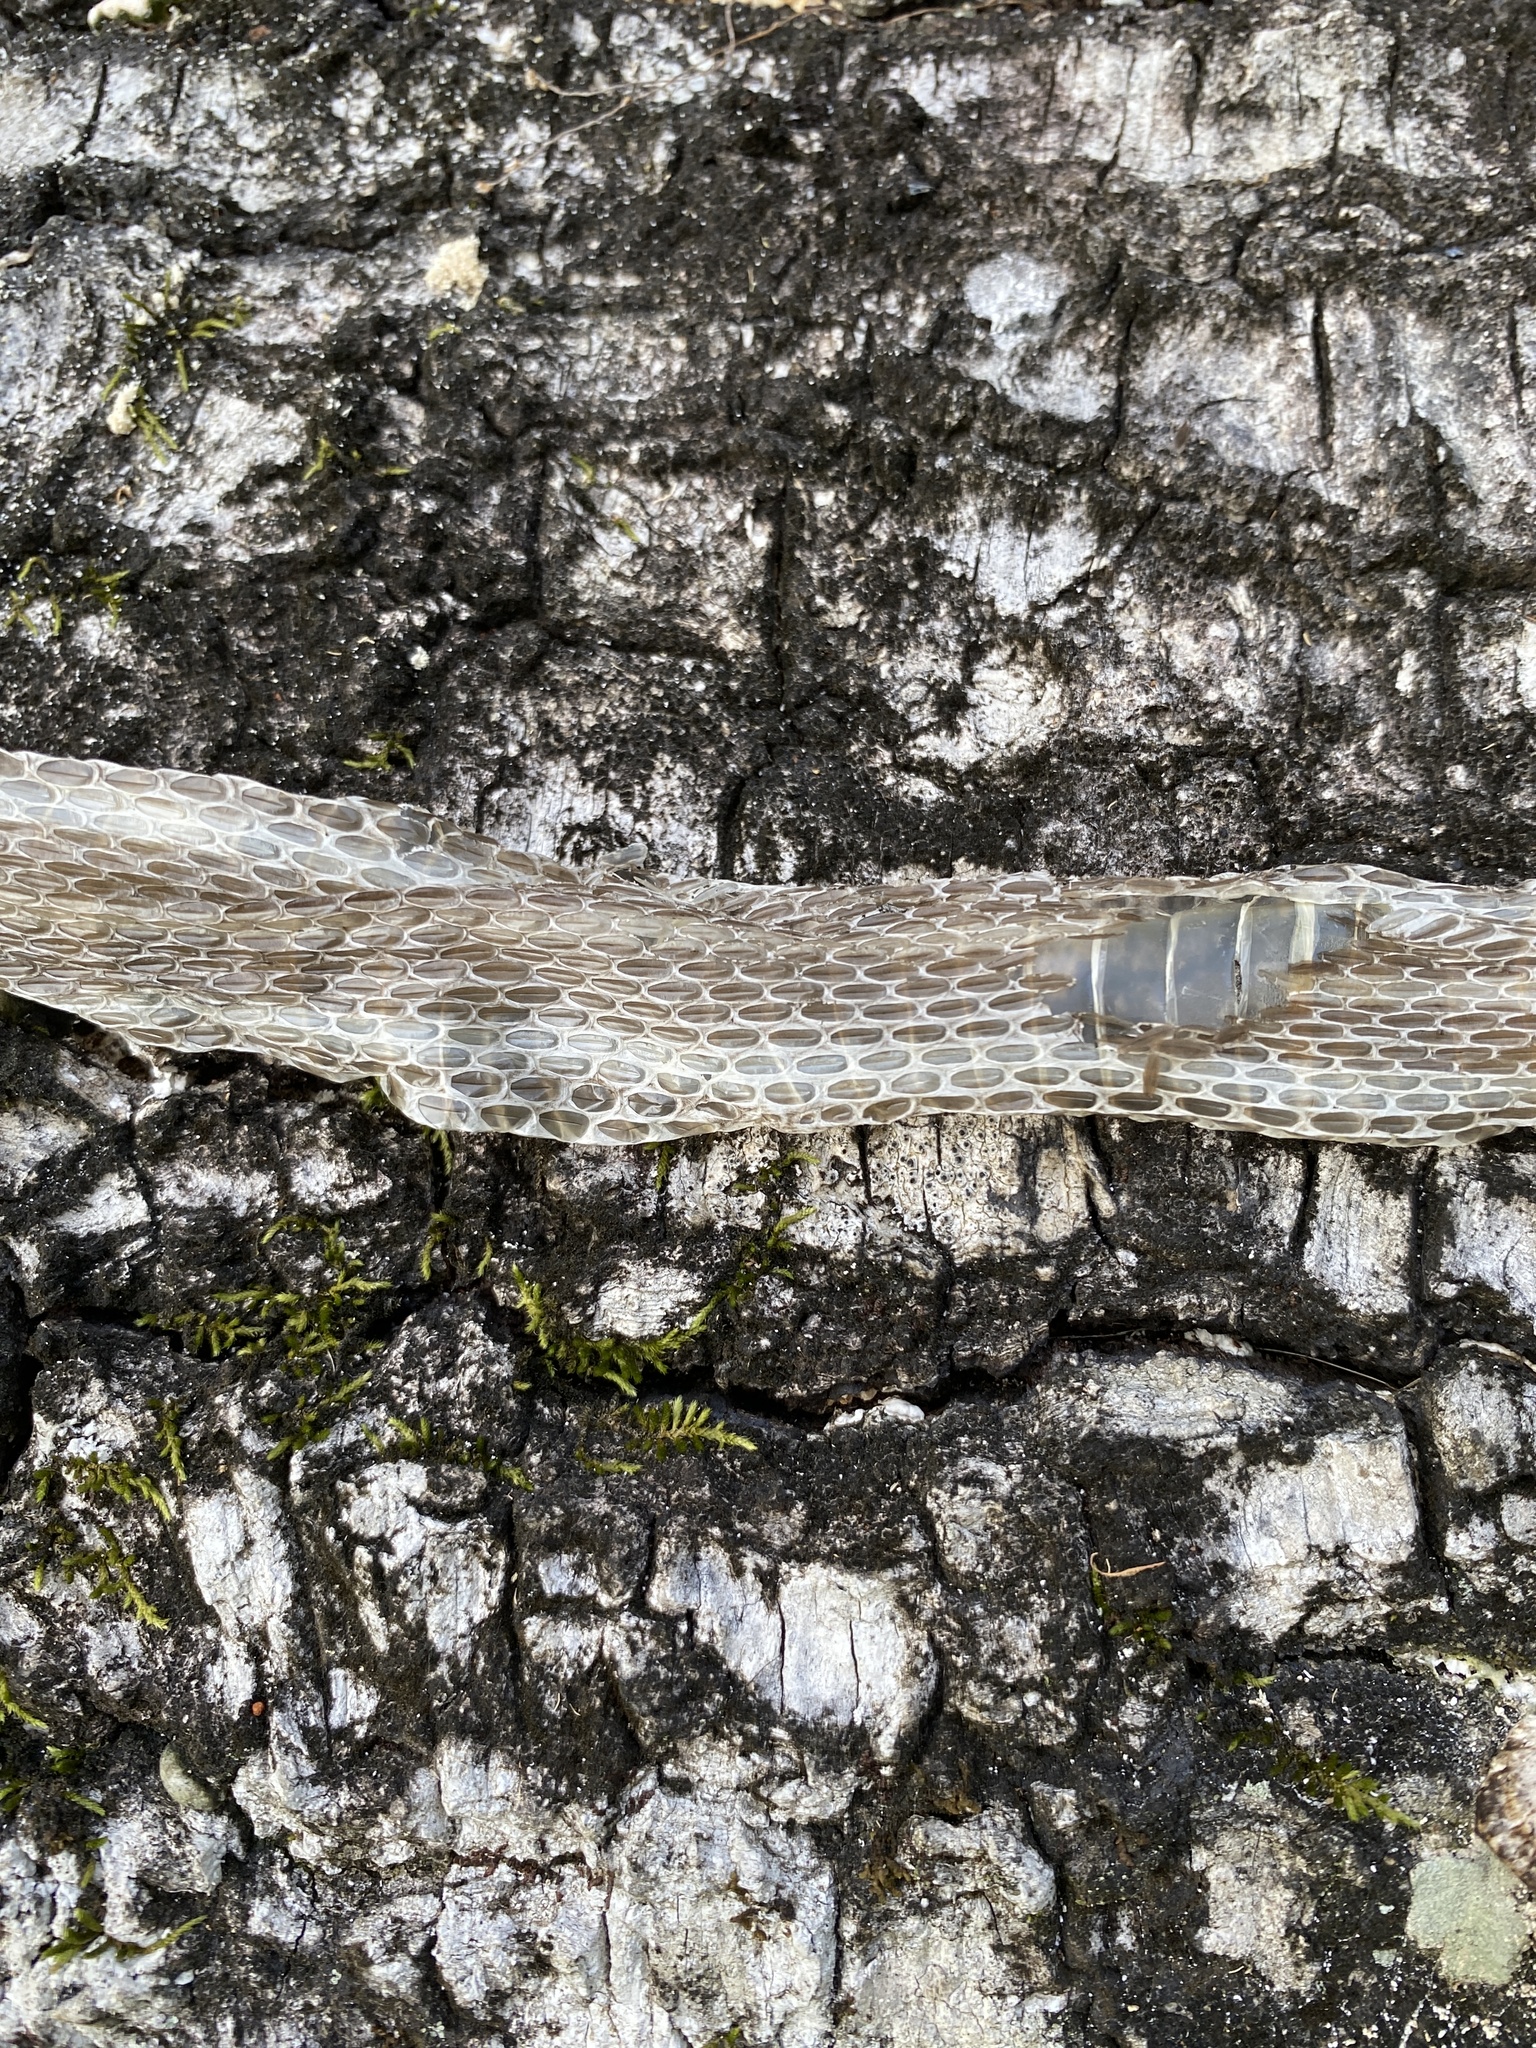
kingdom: Animalia
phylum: Chordata
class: Squamata
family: Colubridae
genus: Thamnophis
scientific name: Thamnophis proximus
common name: Western ribbon snake
